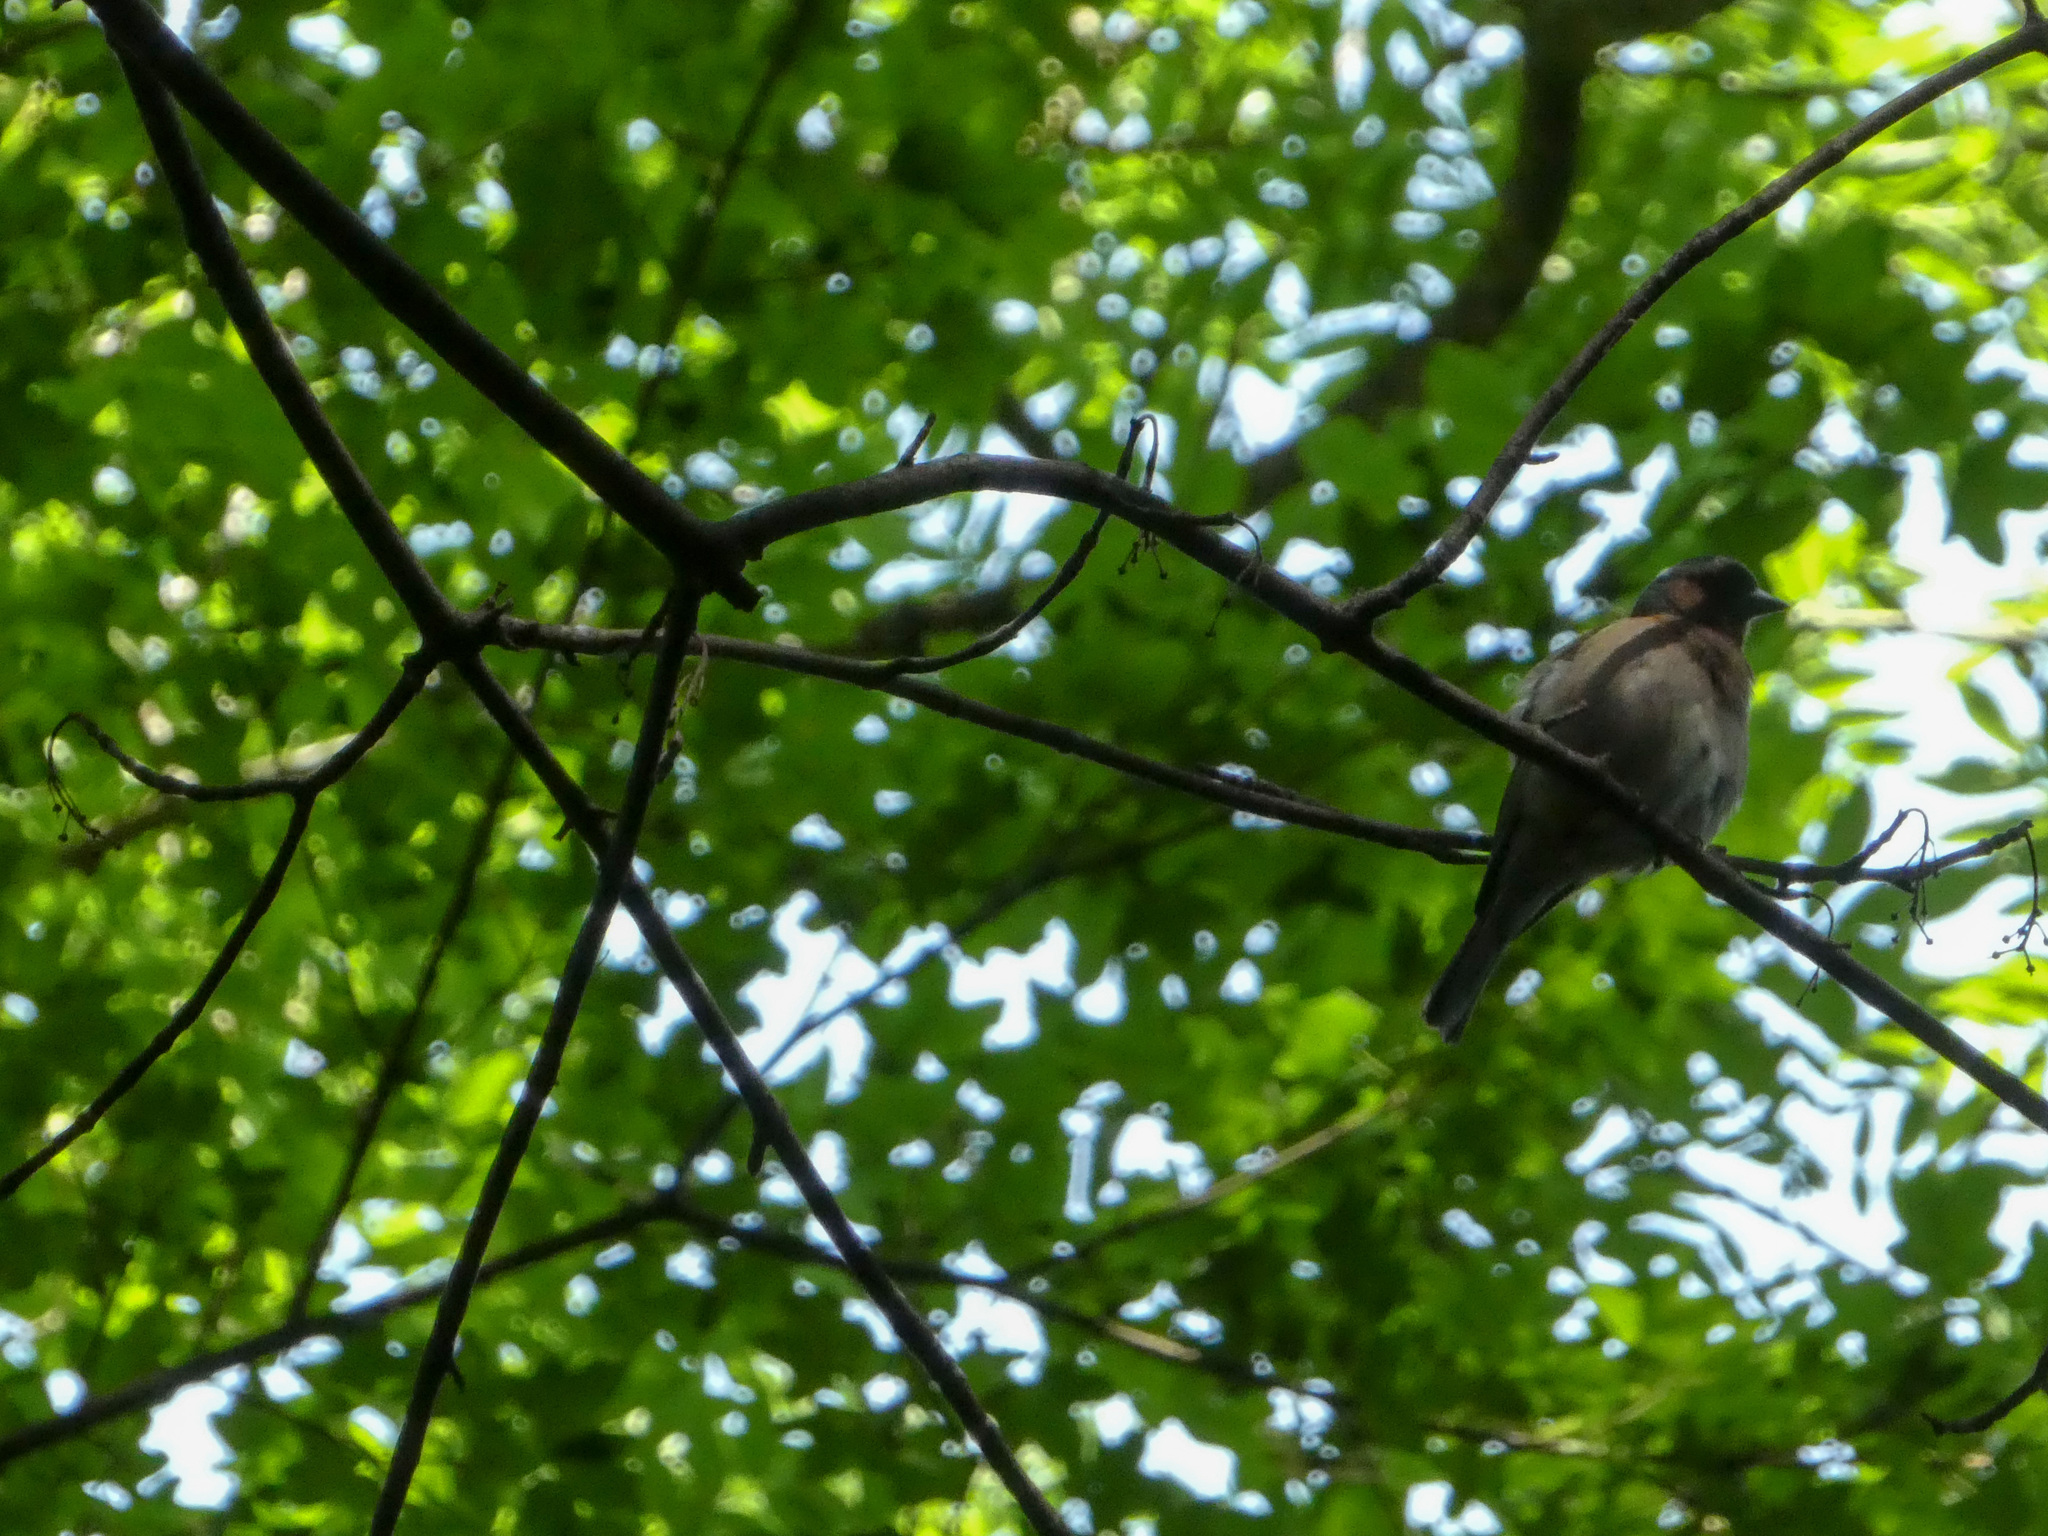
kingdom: Animalia
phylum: Chordata
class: Aves
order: Passeriformes
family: Fringillidae
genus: Fringilla
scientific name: Fringilla coelebs
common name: Common chaffinch
